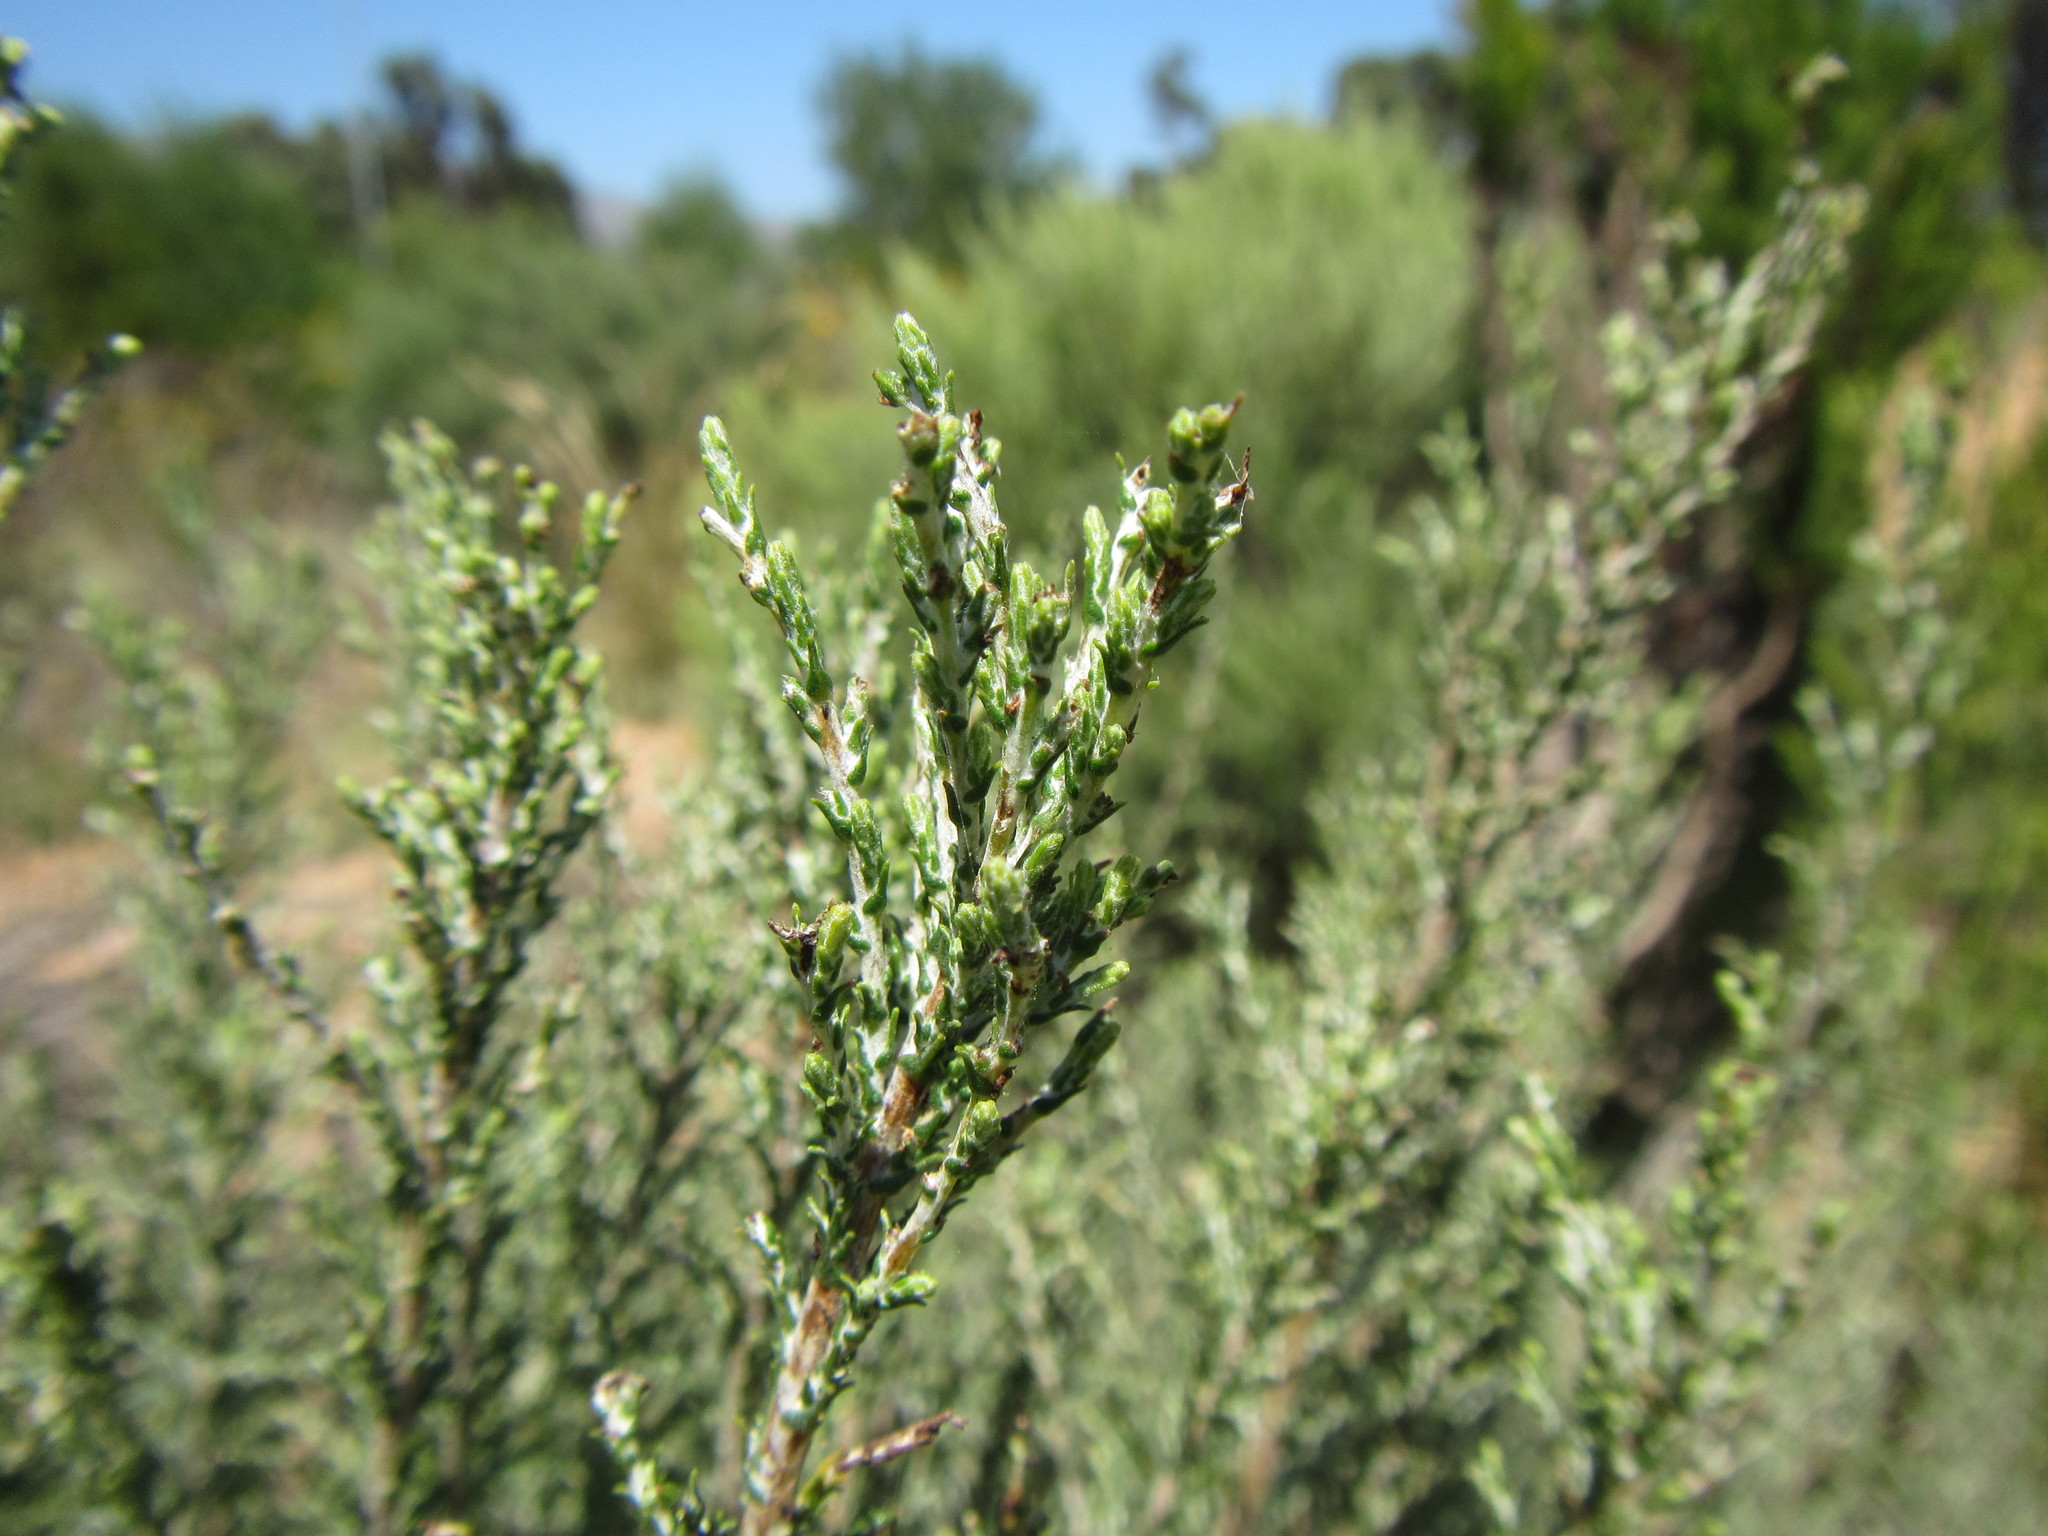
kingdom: Plantae
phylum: Tracheophyta
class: Magnoliopsida
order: Asterales
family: Asteraceae
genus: Dicerothamnus
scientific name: Dicerothamnus rhinocerotis
